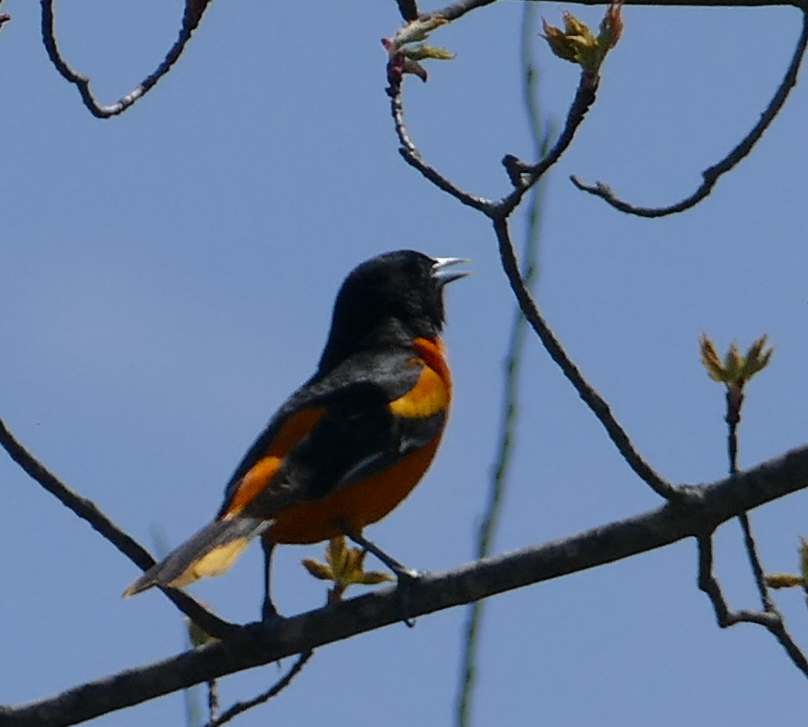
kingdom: Animalia
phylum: Chordata
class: Aves
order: Passeriformes
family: Icteridae
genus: Icterus
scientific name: Icterus galbula
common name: Baltimore oriole
